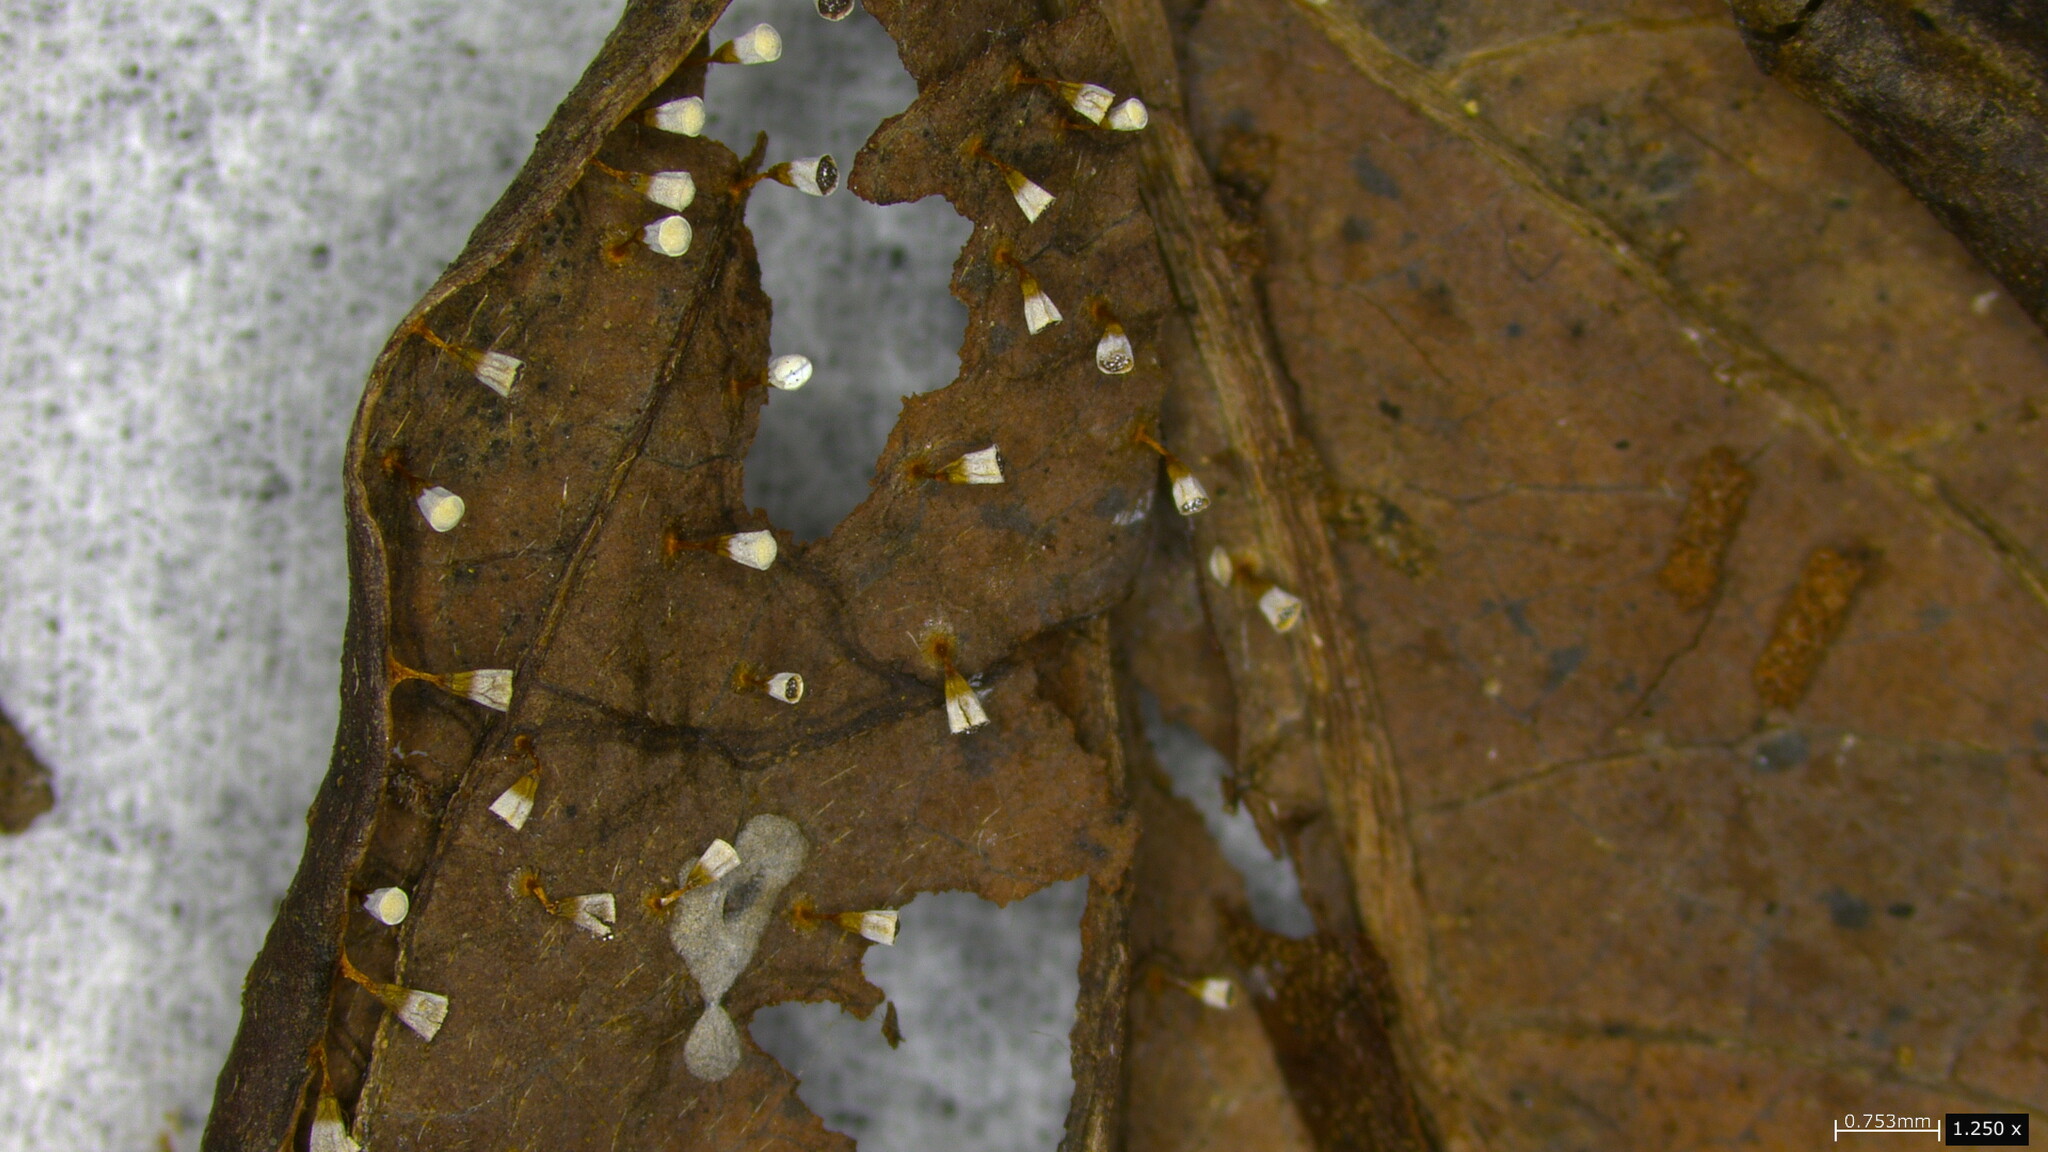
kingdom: Protozoa
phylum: Mycetozoa
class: Myxomycetes
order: Physarales
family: Physaraceae
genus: Craterium
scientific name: Craterium leucocephalum
